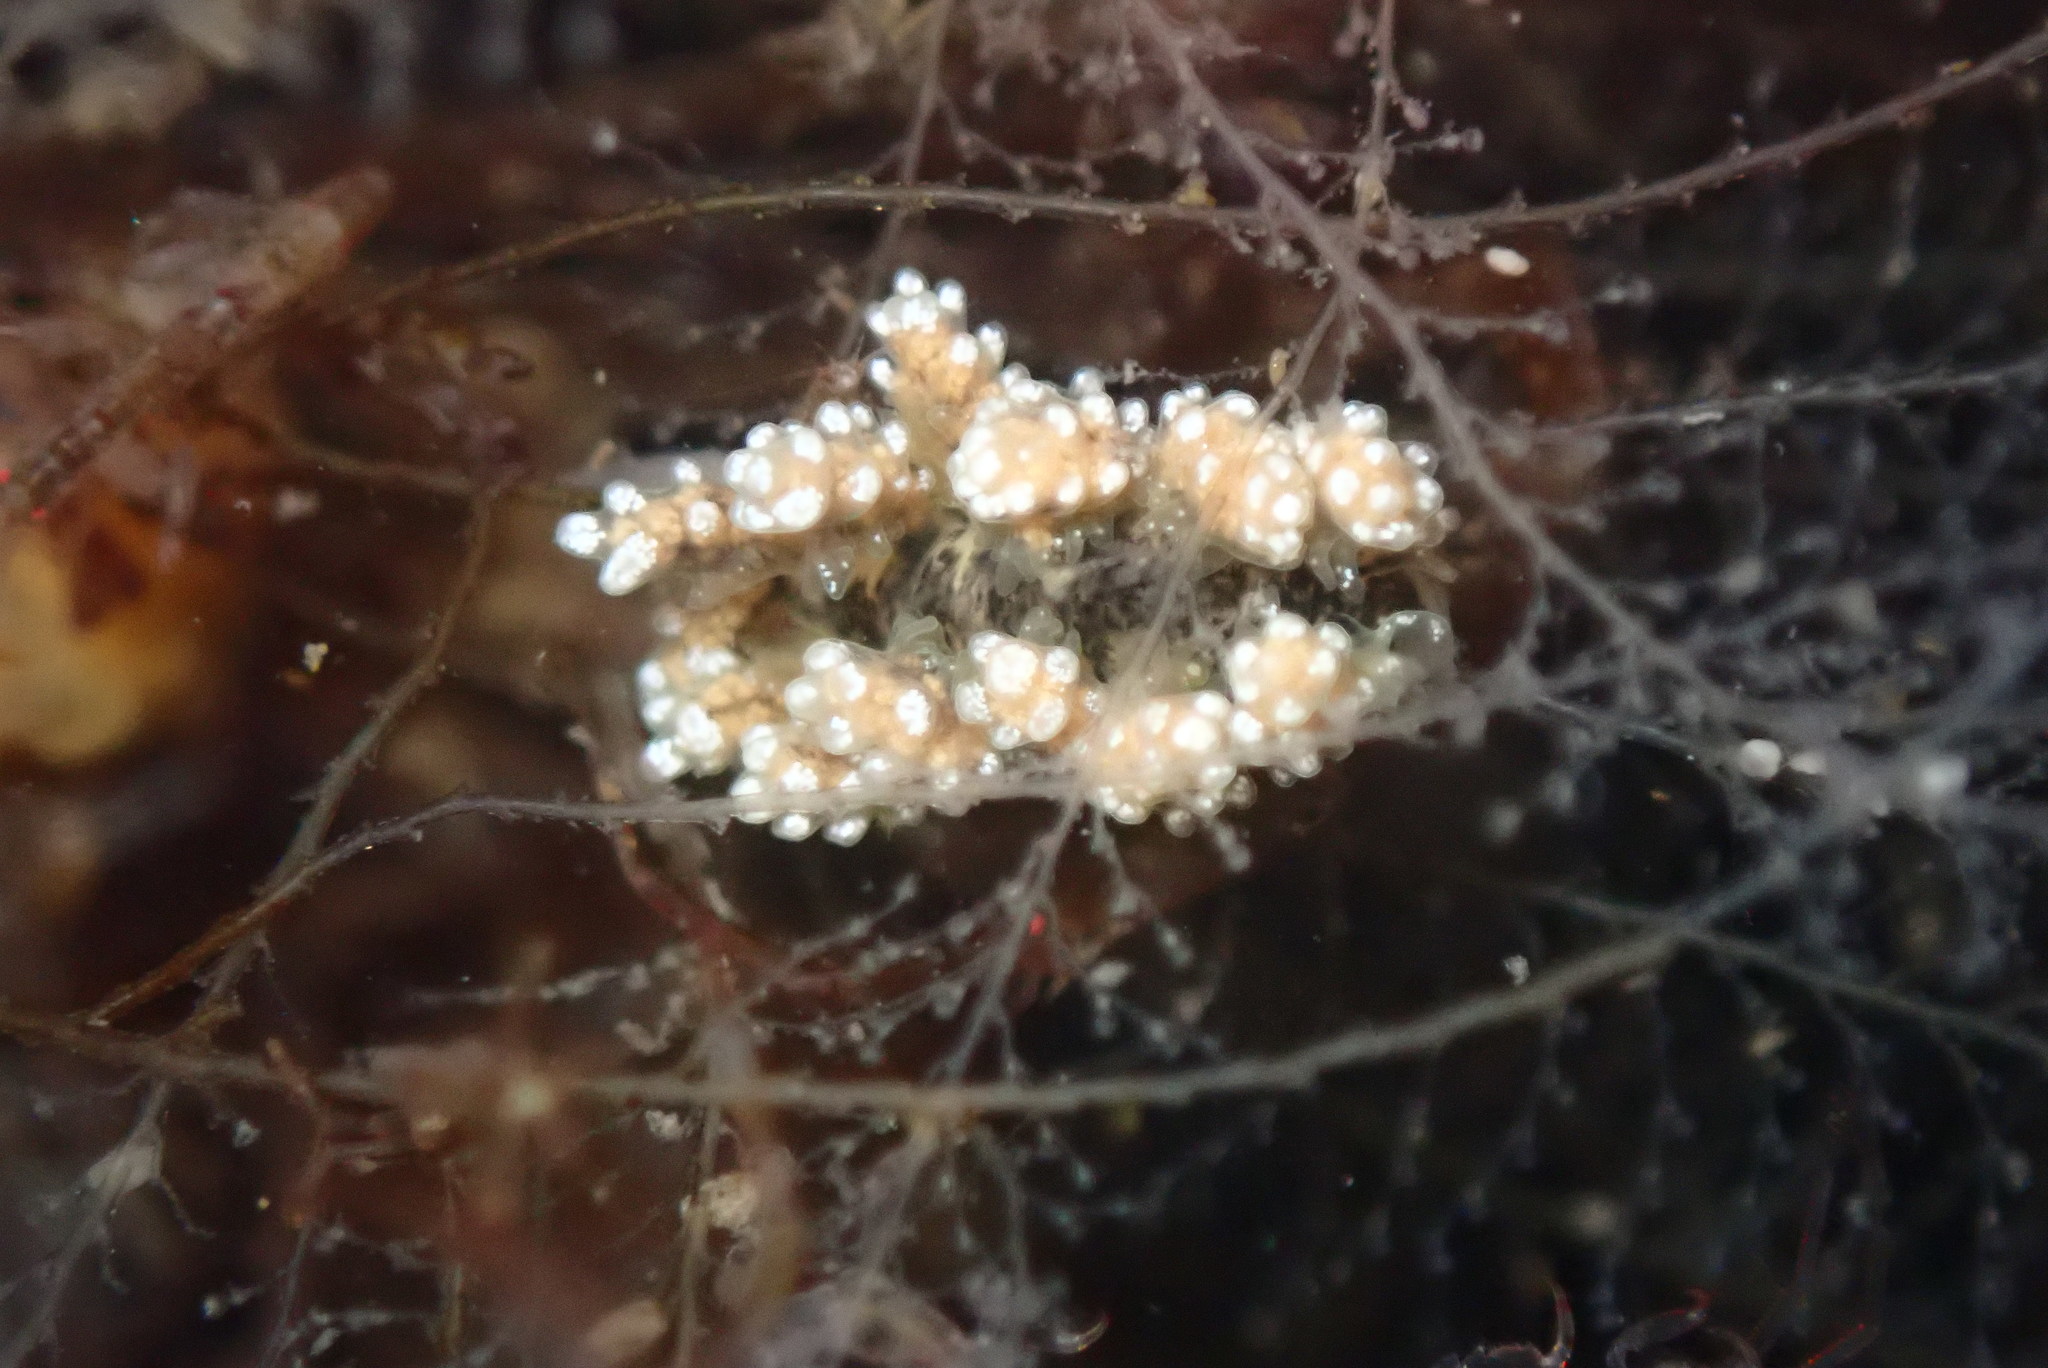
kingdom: Animalia
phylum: Mollusca
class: Gastropoda
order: Nudibranchia
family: Dotidae
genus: Doto
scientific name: Doto kya
